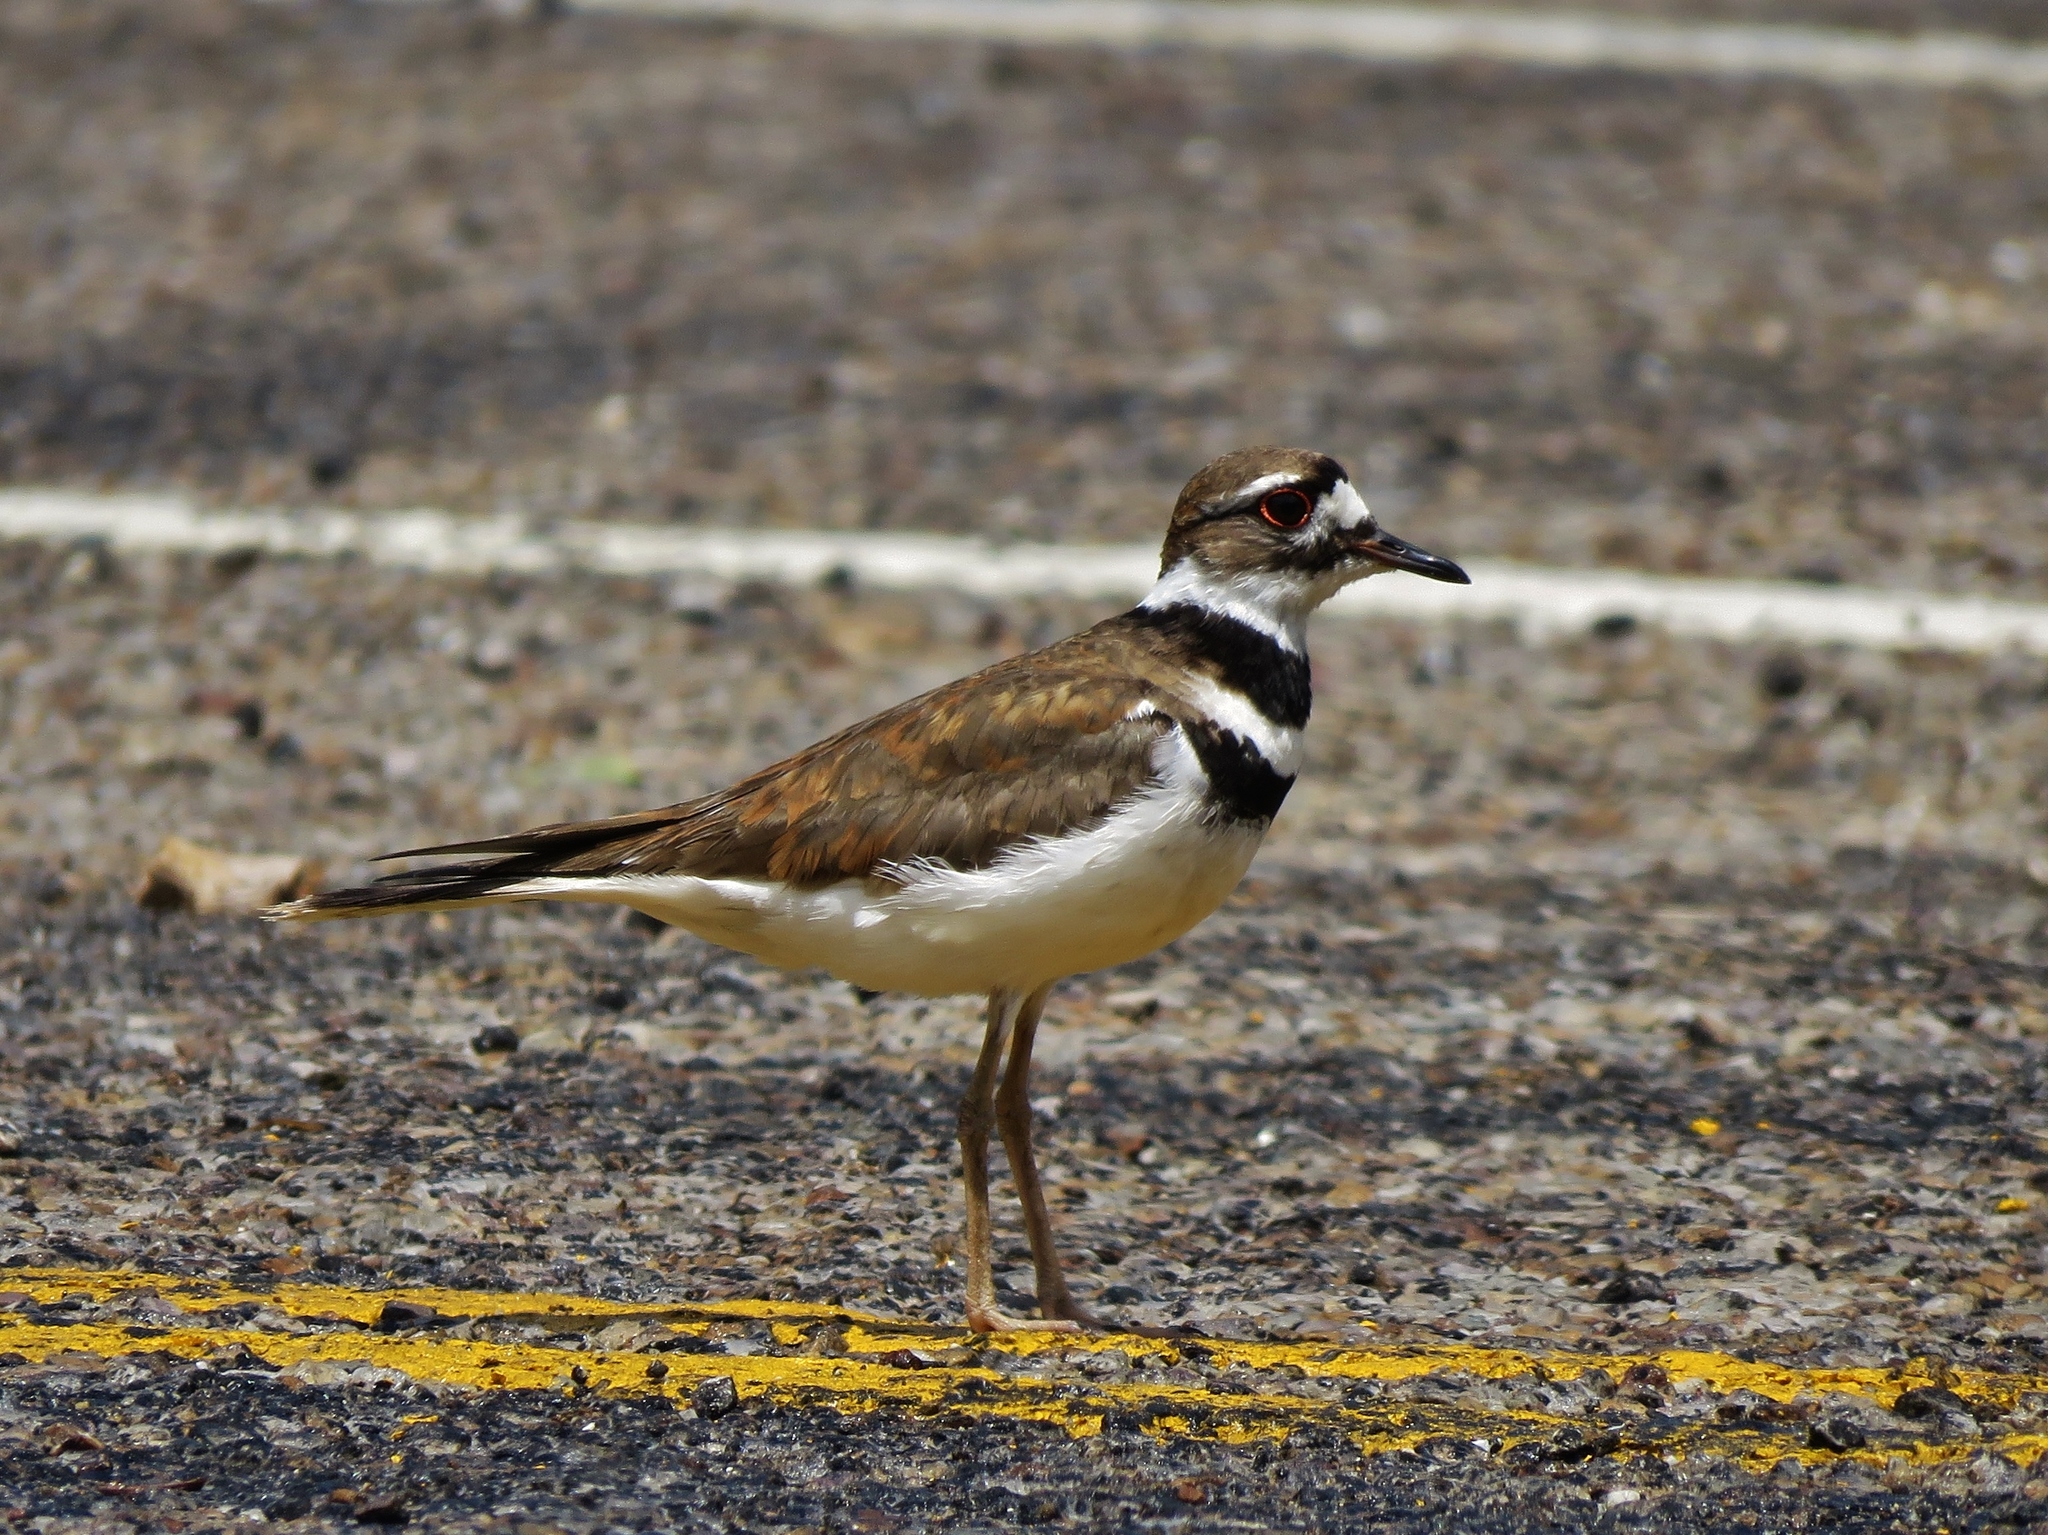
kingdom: Animalia
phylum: Chordata
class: Aves
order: Charadriiformes
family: Charadriidae
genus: Charadrius
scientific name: Charadrius vociferus
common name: Killdeer
